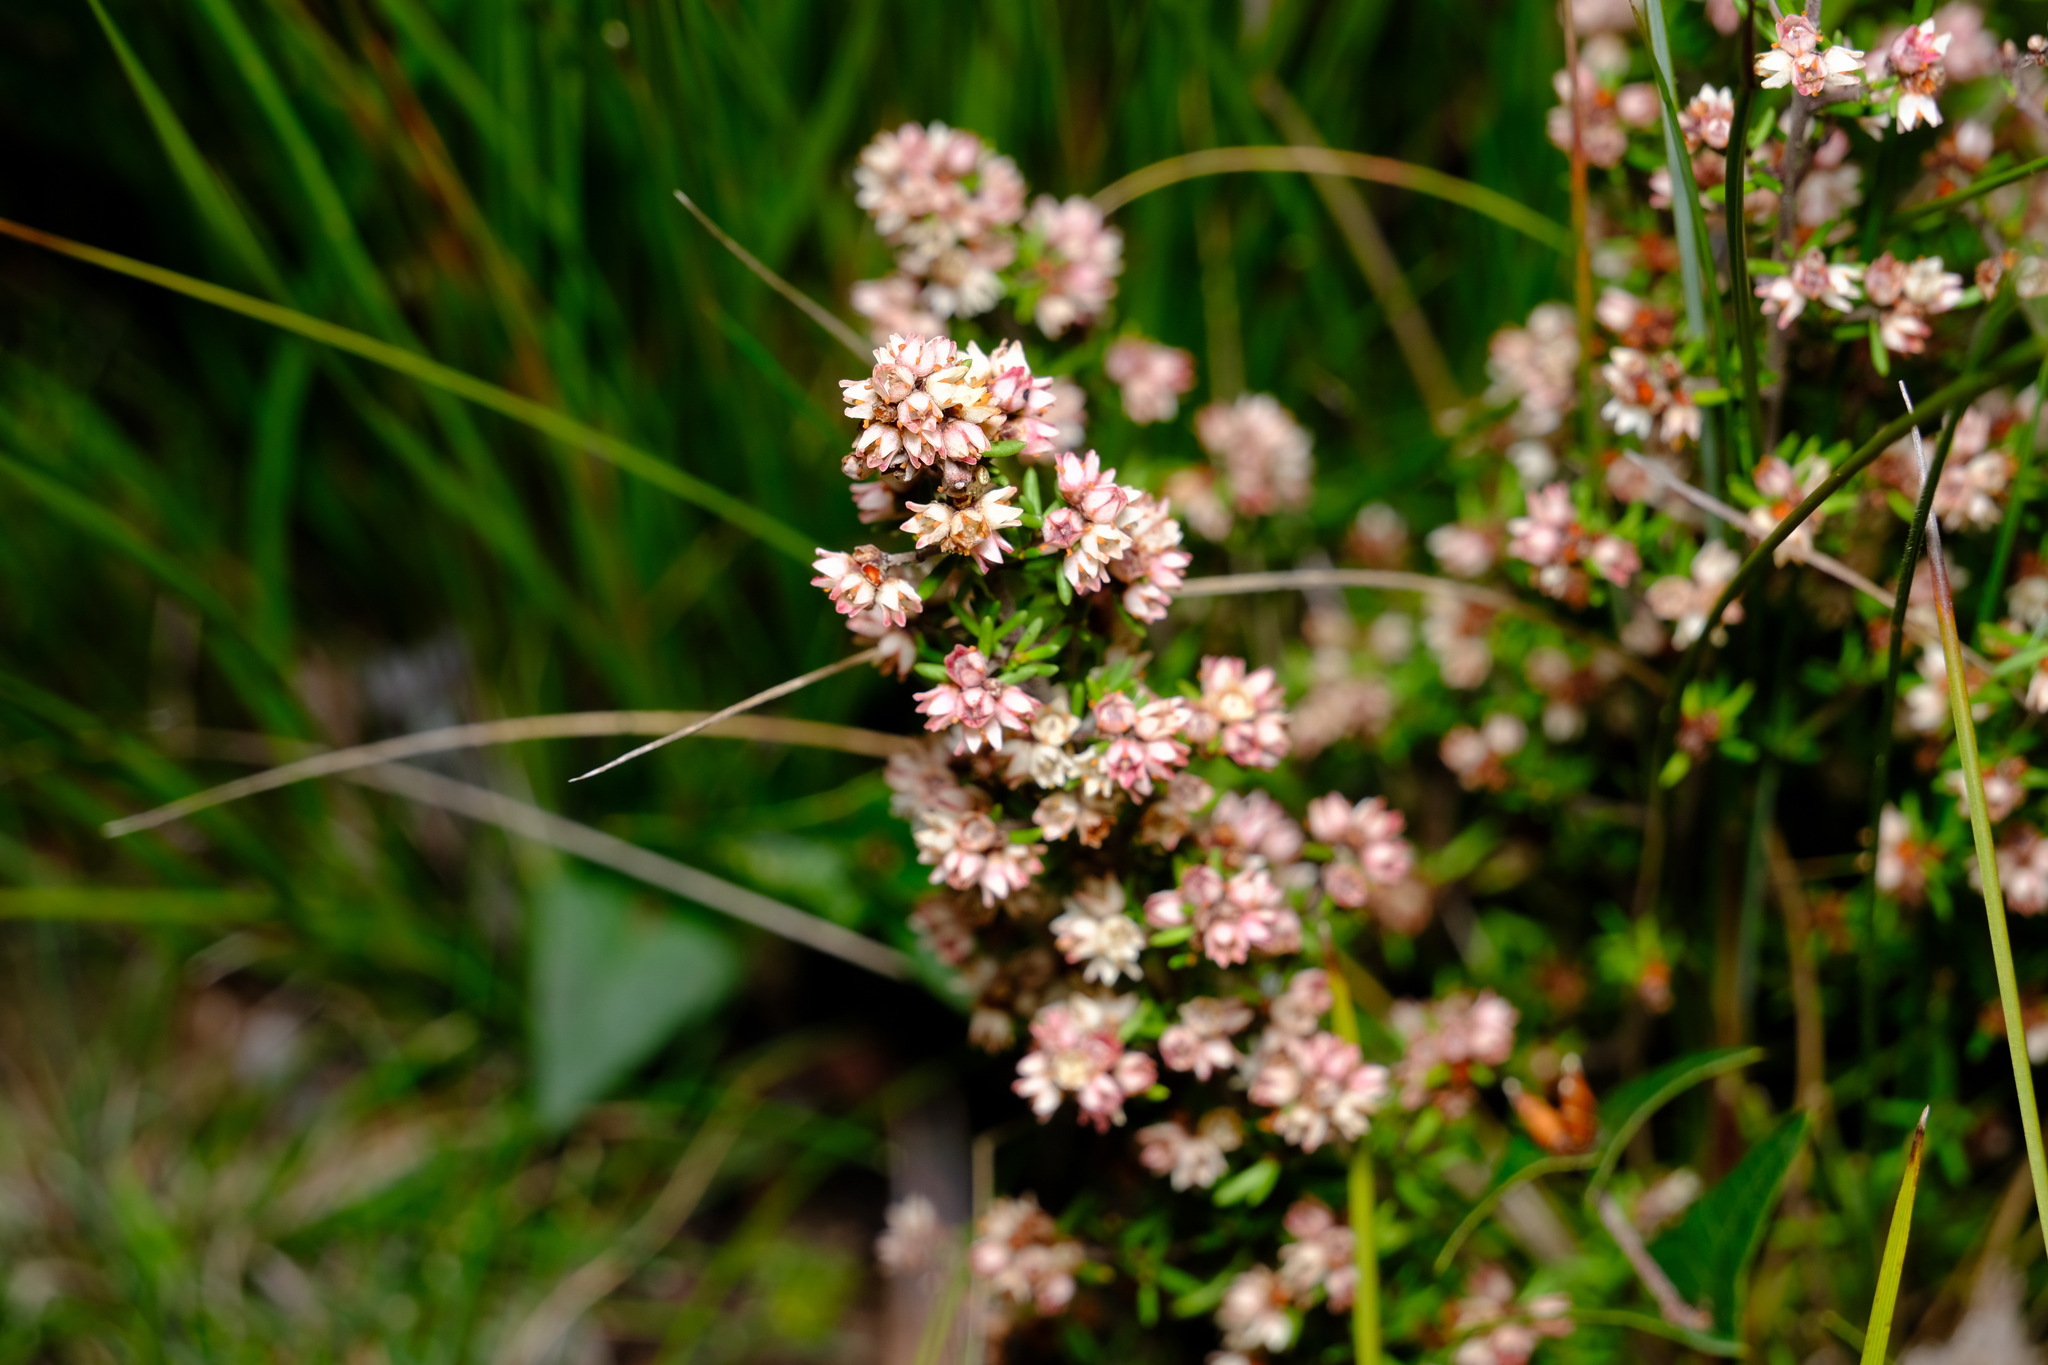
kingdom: Plantae
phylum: Tracheophyta
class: Magnoliopsida
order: Rosales
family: Rhamnaceae
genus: Cryptandra
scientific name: Cryptandra tomentosa
